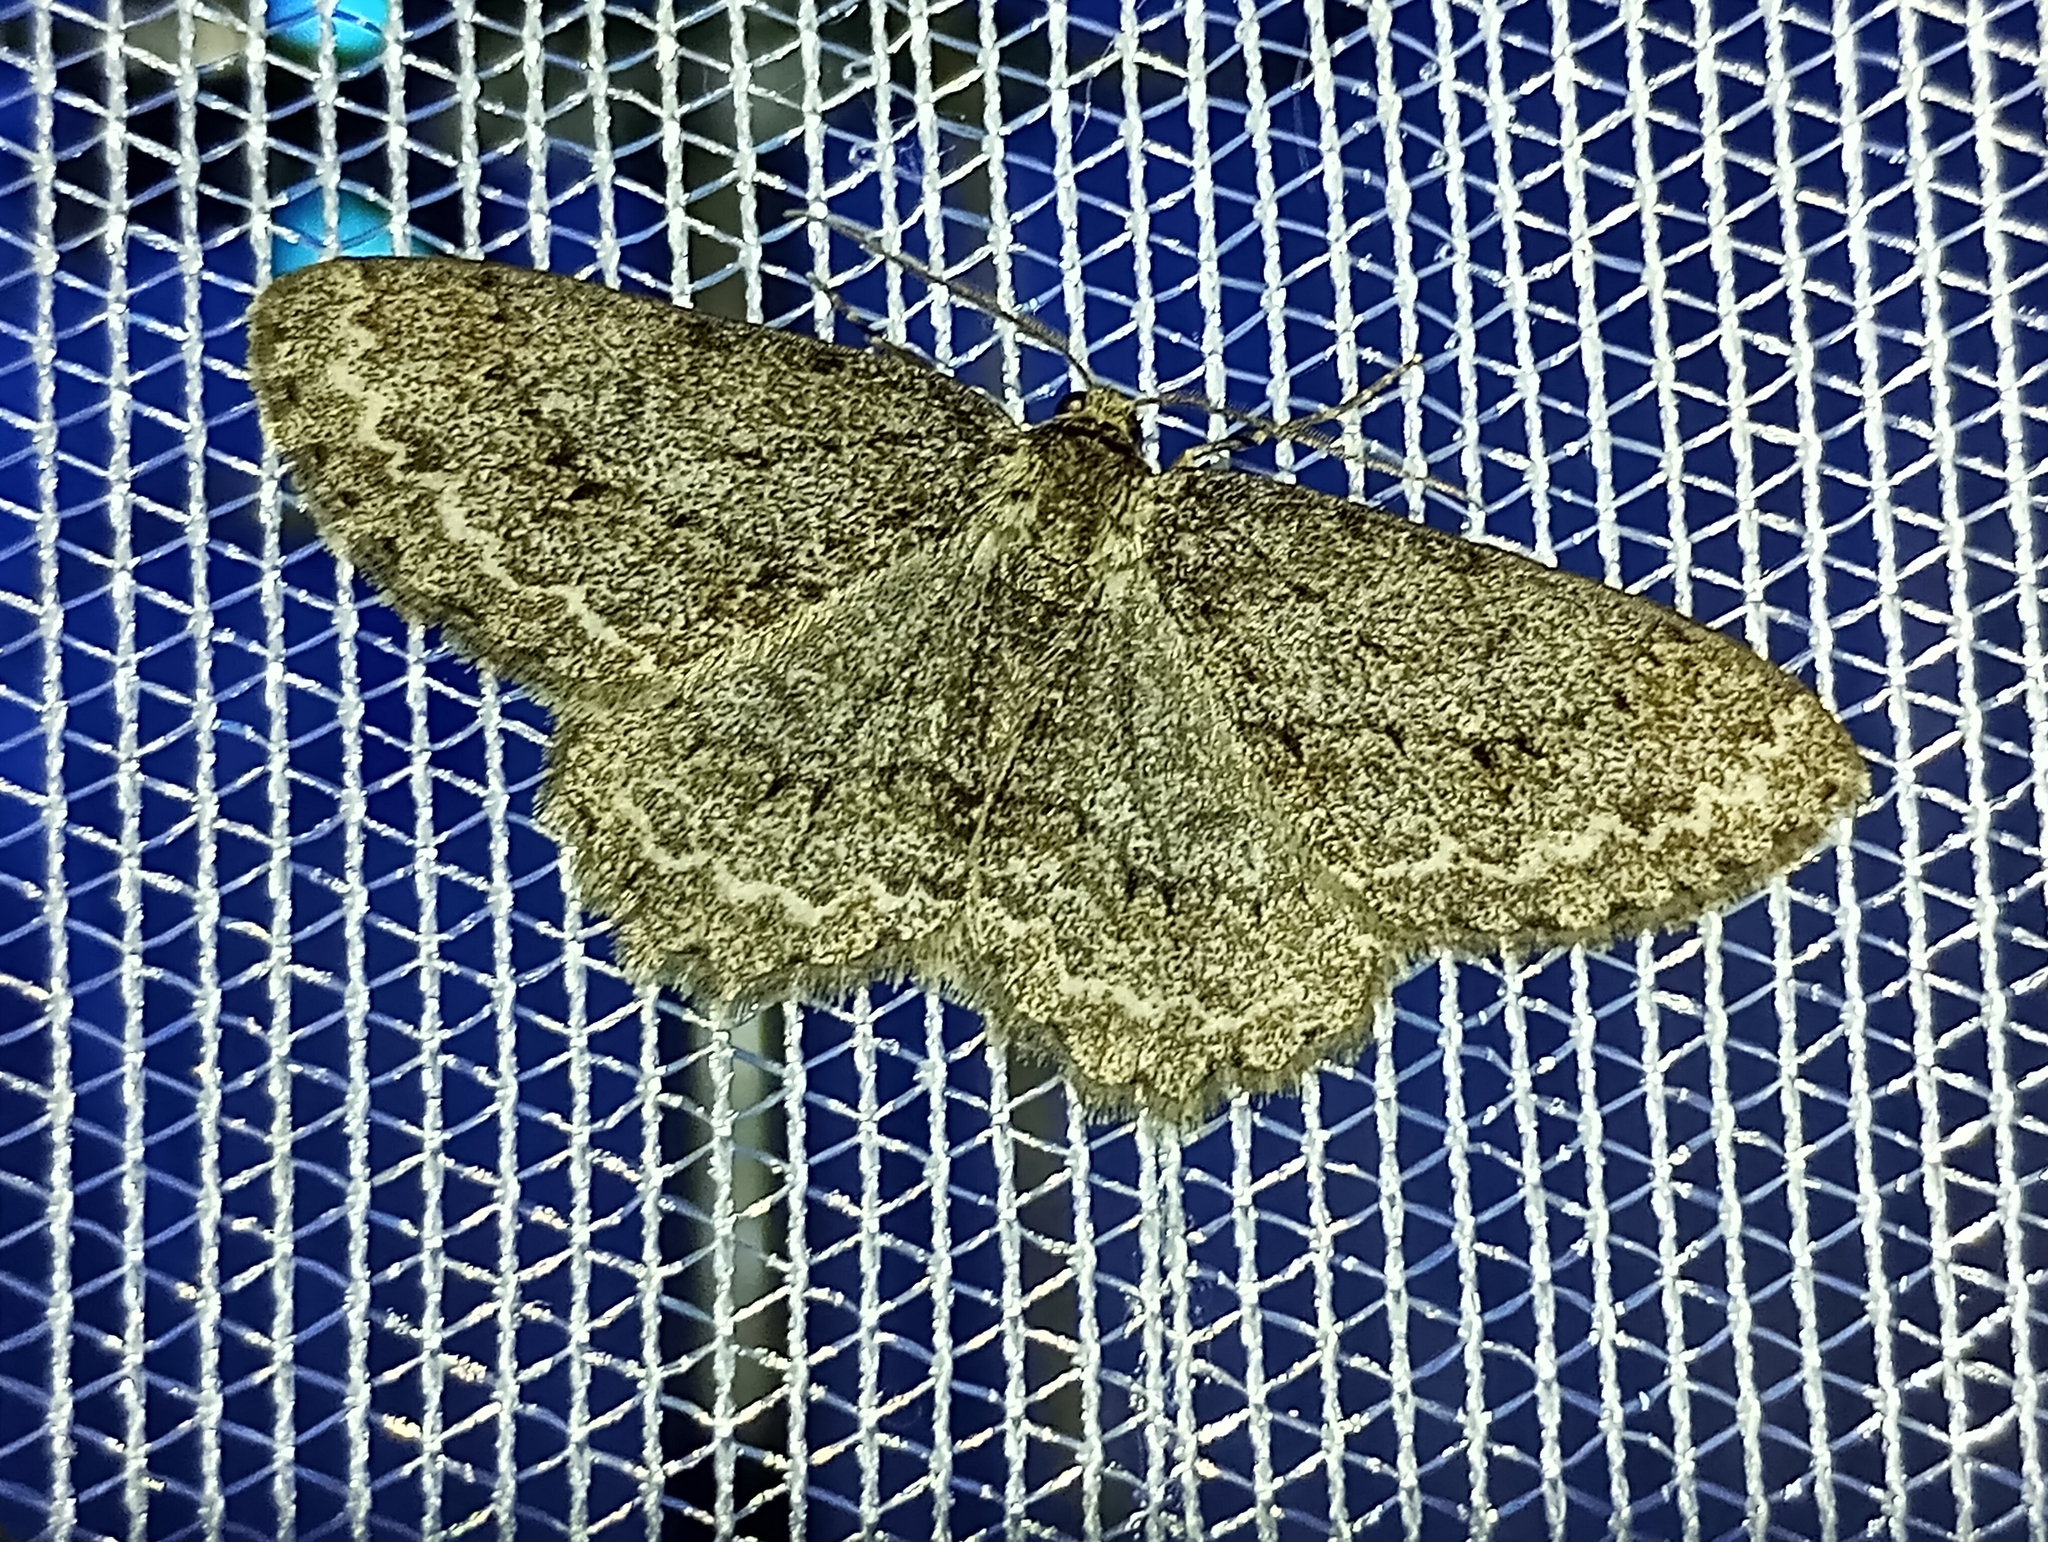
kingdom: Animalia
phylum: Arthropoda
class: Insecta
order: Lepidoptera
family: Geometridae
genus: Ectropis
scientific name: Ectropis crepuscularia
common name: Engrailed
